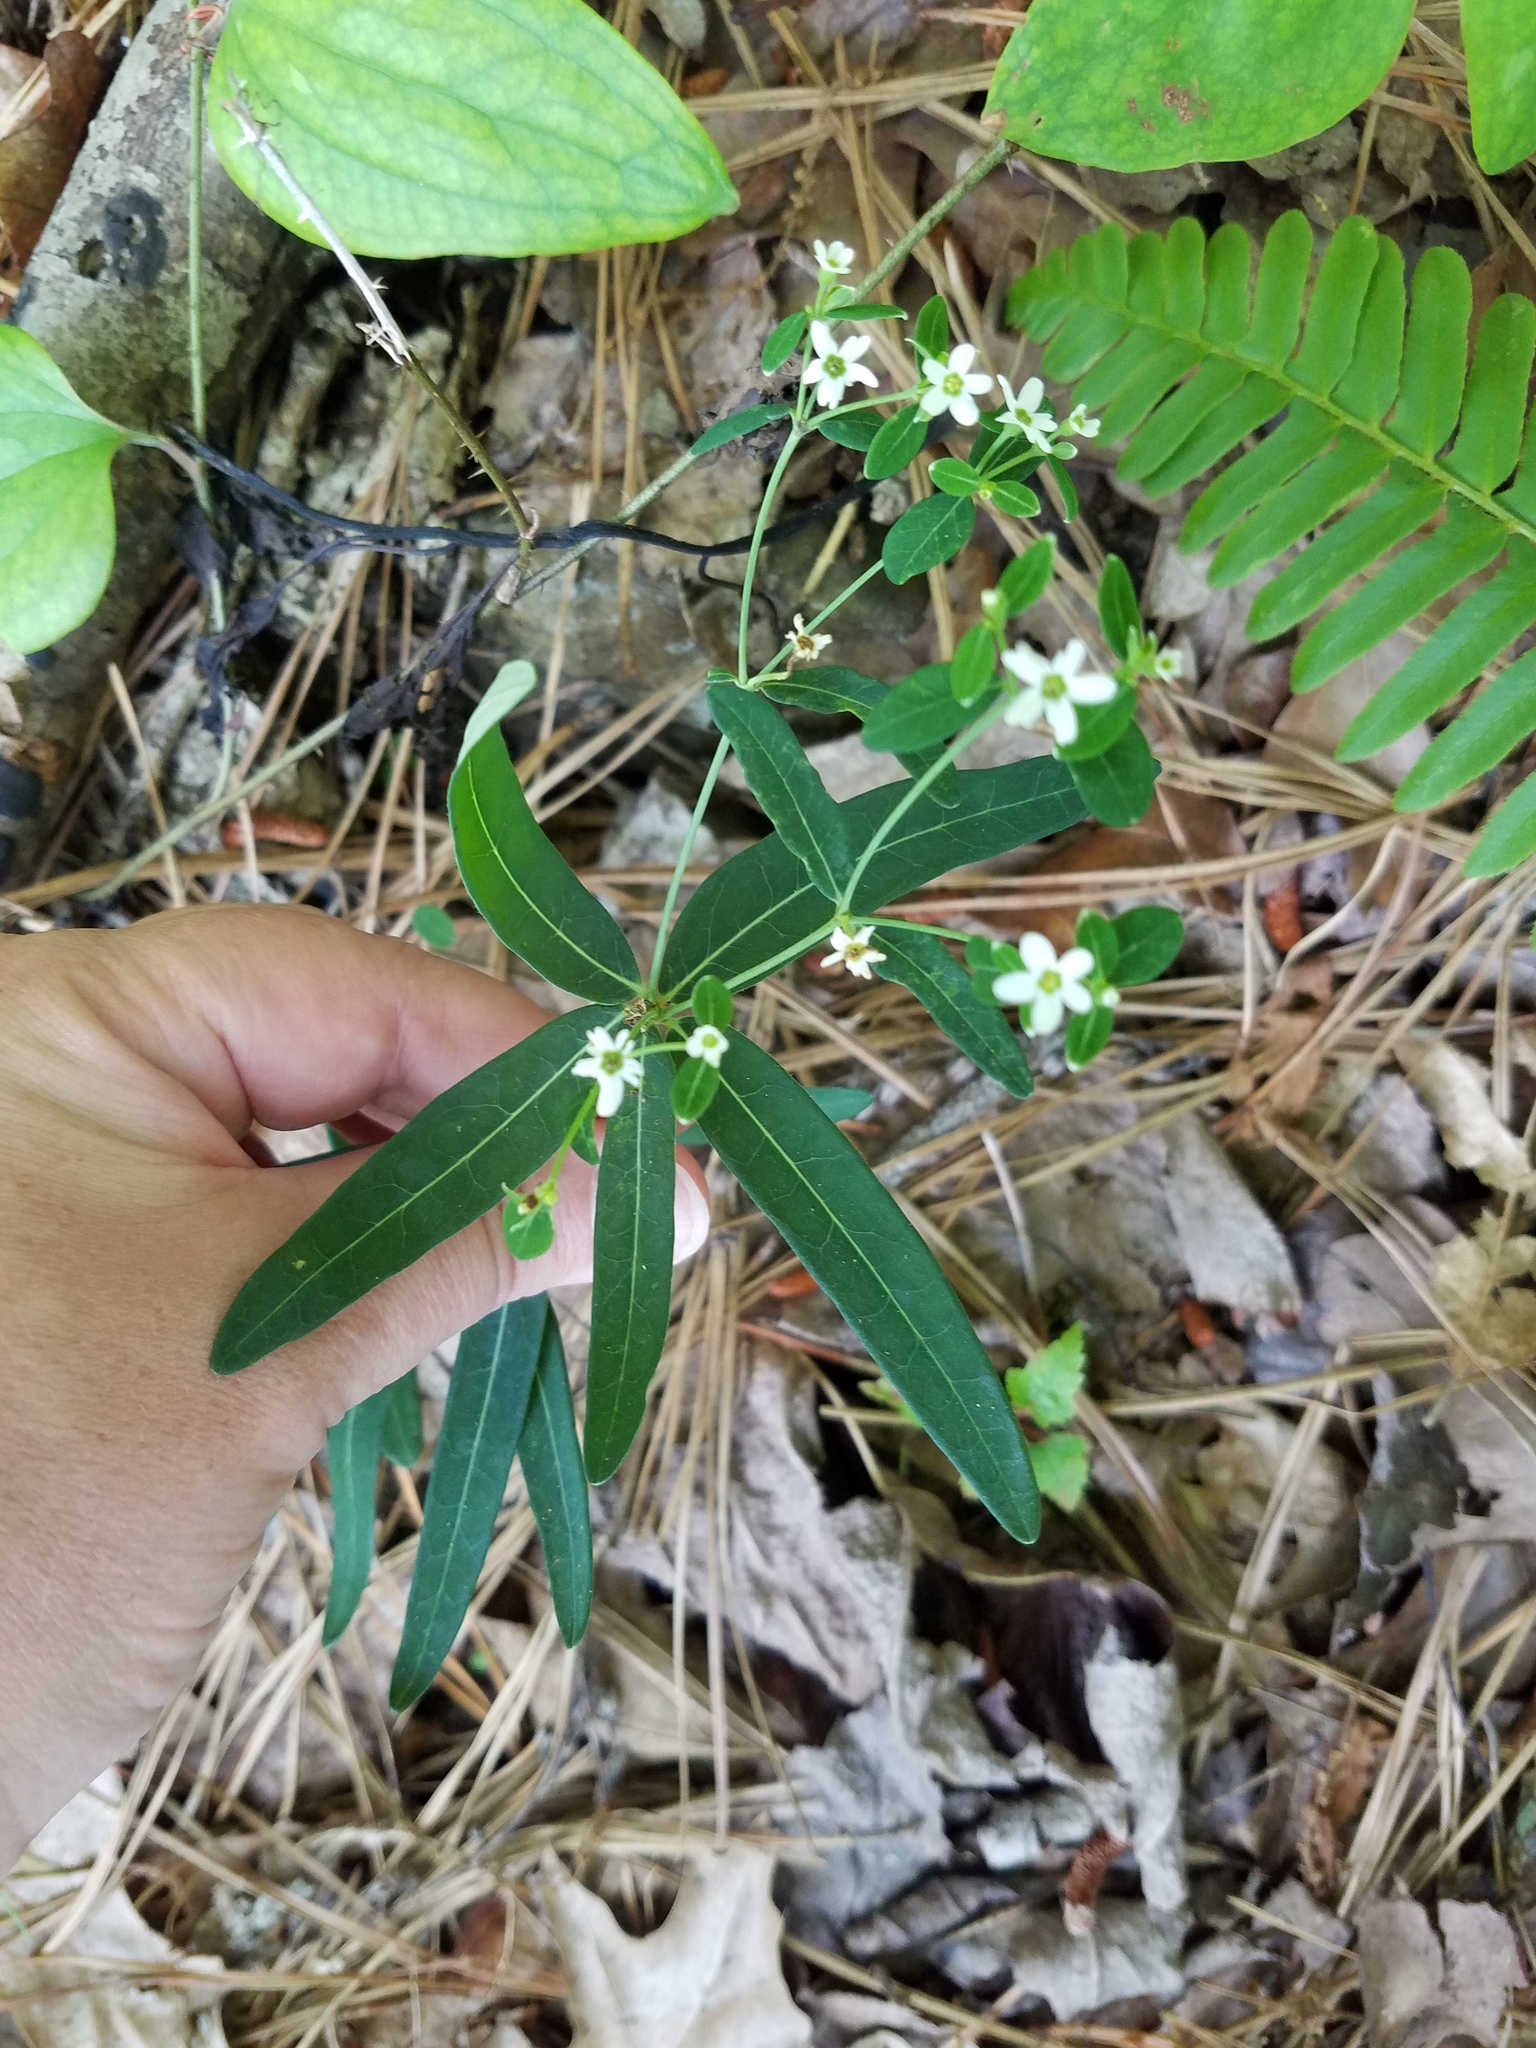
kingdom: Plantae
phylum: Tracheophyta
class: Magnoliopsida
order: Malpighiales
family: Euphorbiaceae
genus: Euphorbia
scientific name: Euphorbia pubentissima
